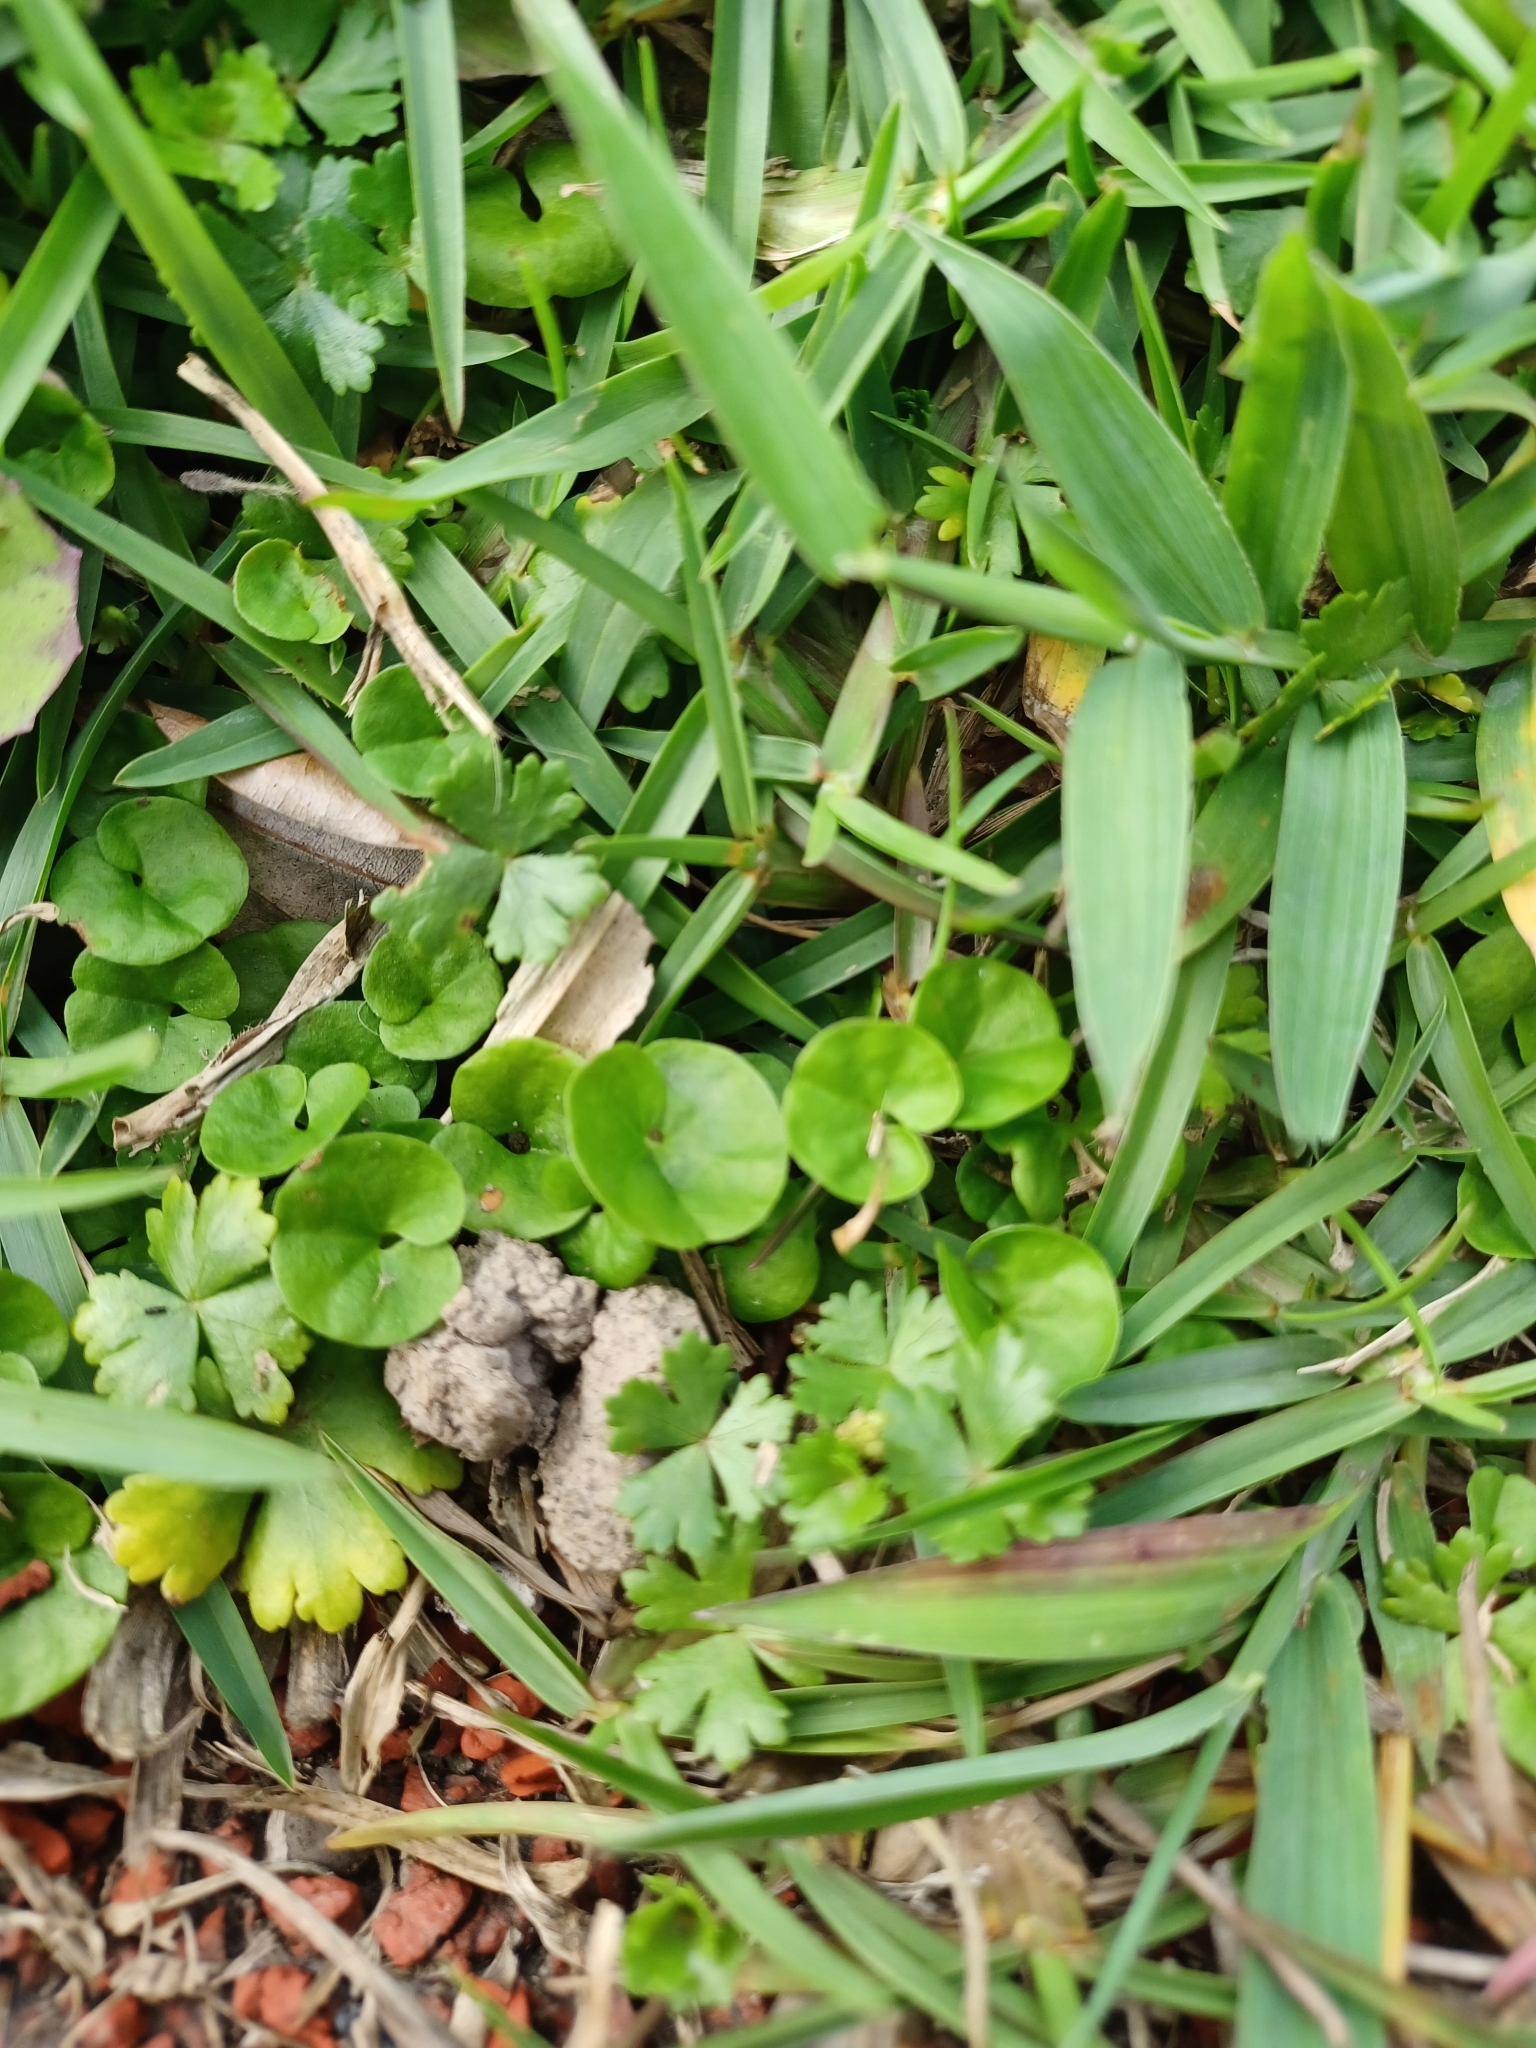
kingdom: Plantae
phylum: Tracheophyta
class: Magnoliopsida
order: Solanales
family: Convolvulaceae
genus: Dichondra
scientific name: Dichondra micrantha
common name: Kidneyweed
